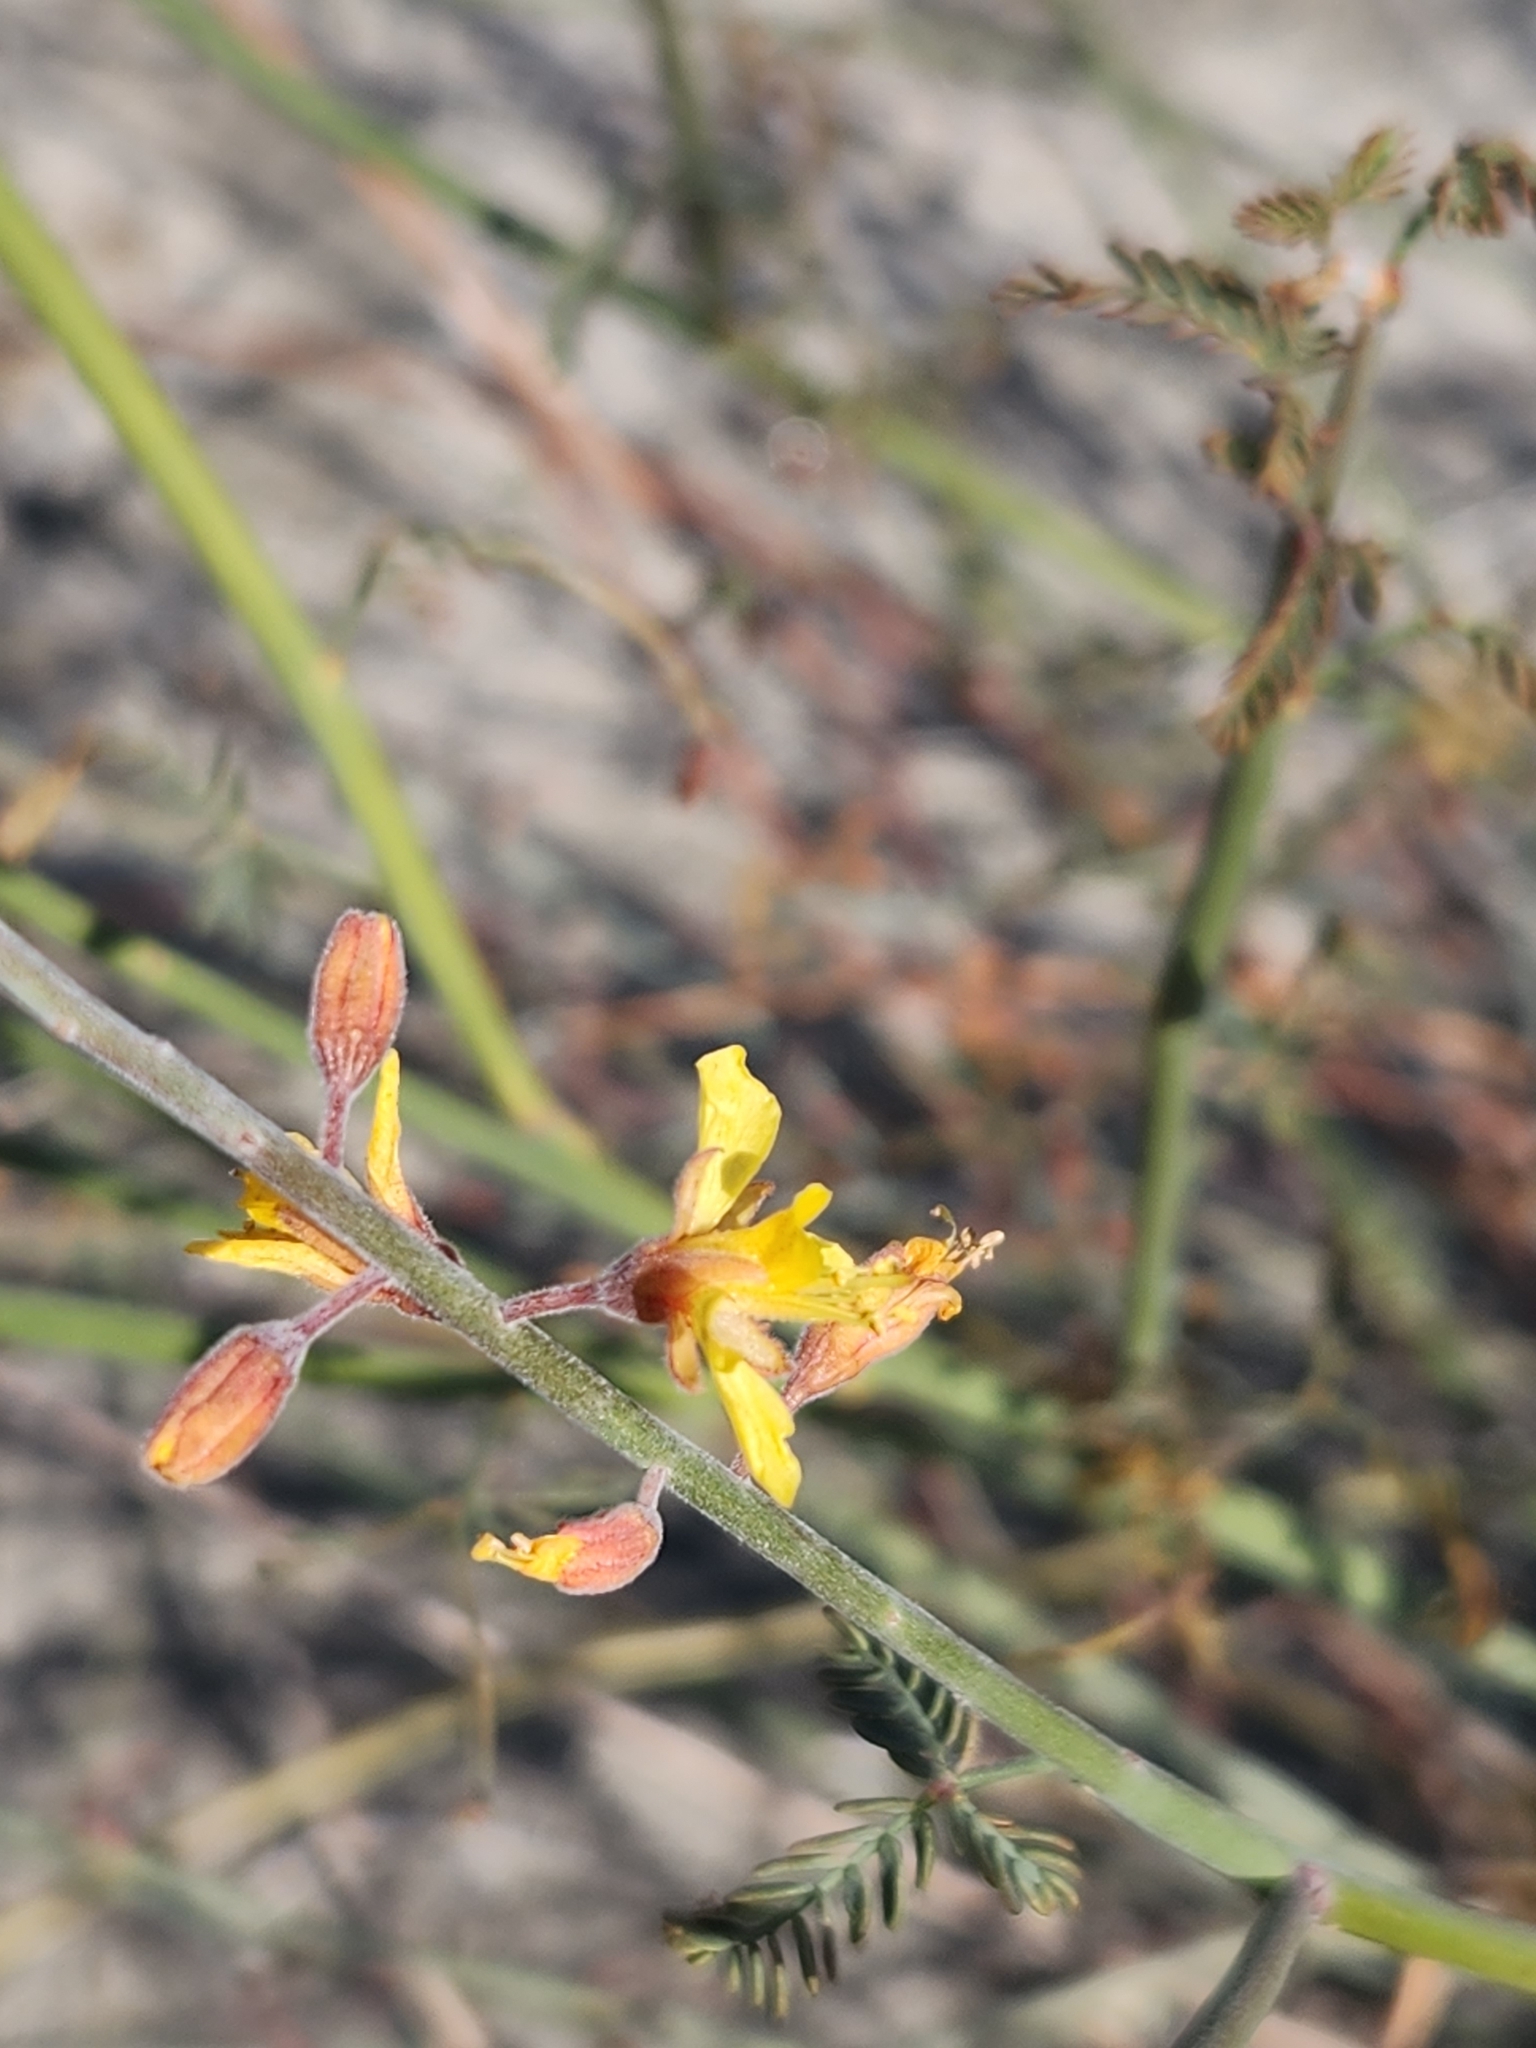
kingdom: Plantae
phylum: Tracheophyta
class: Magnoliopsida
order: Fabales
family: Fabaceae
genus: Hoffmannseggia
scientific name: Hoffmannseggia microphylla
